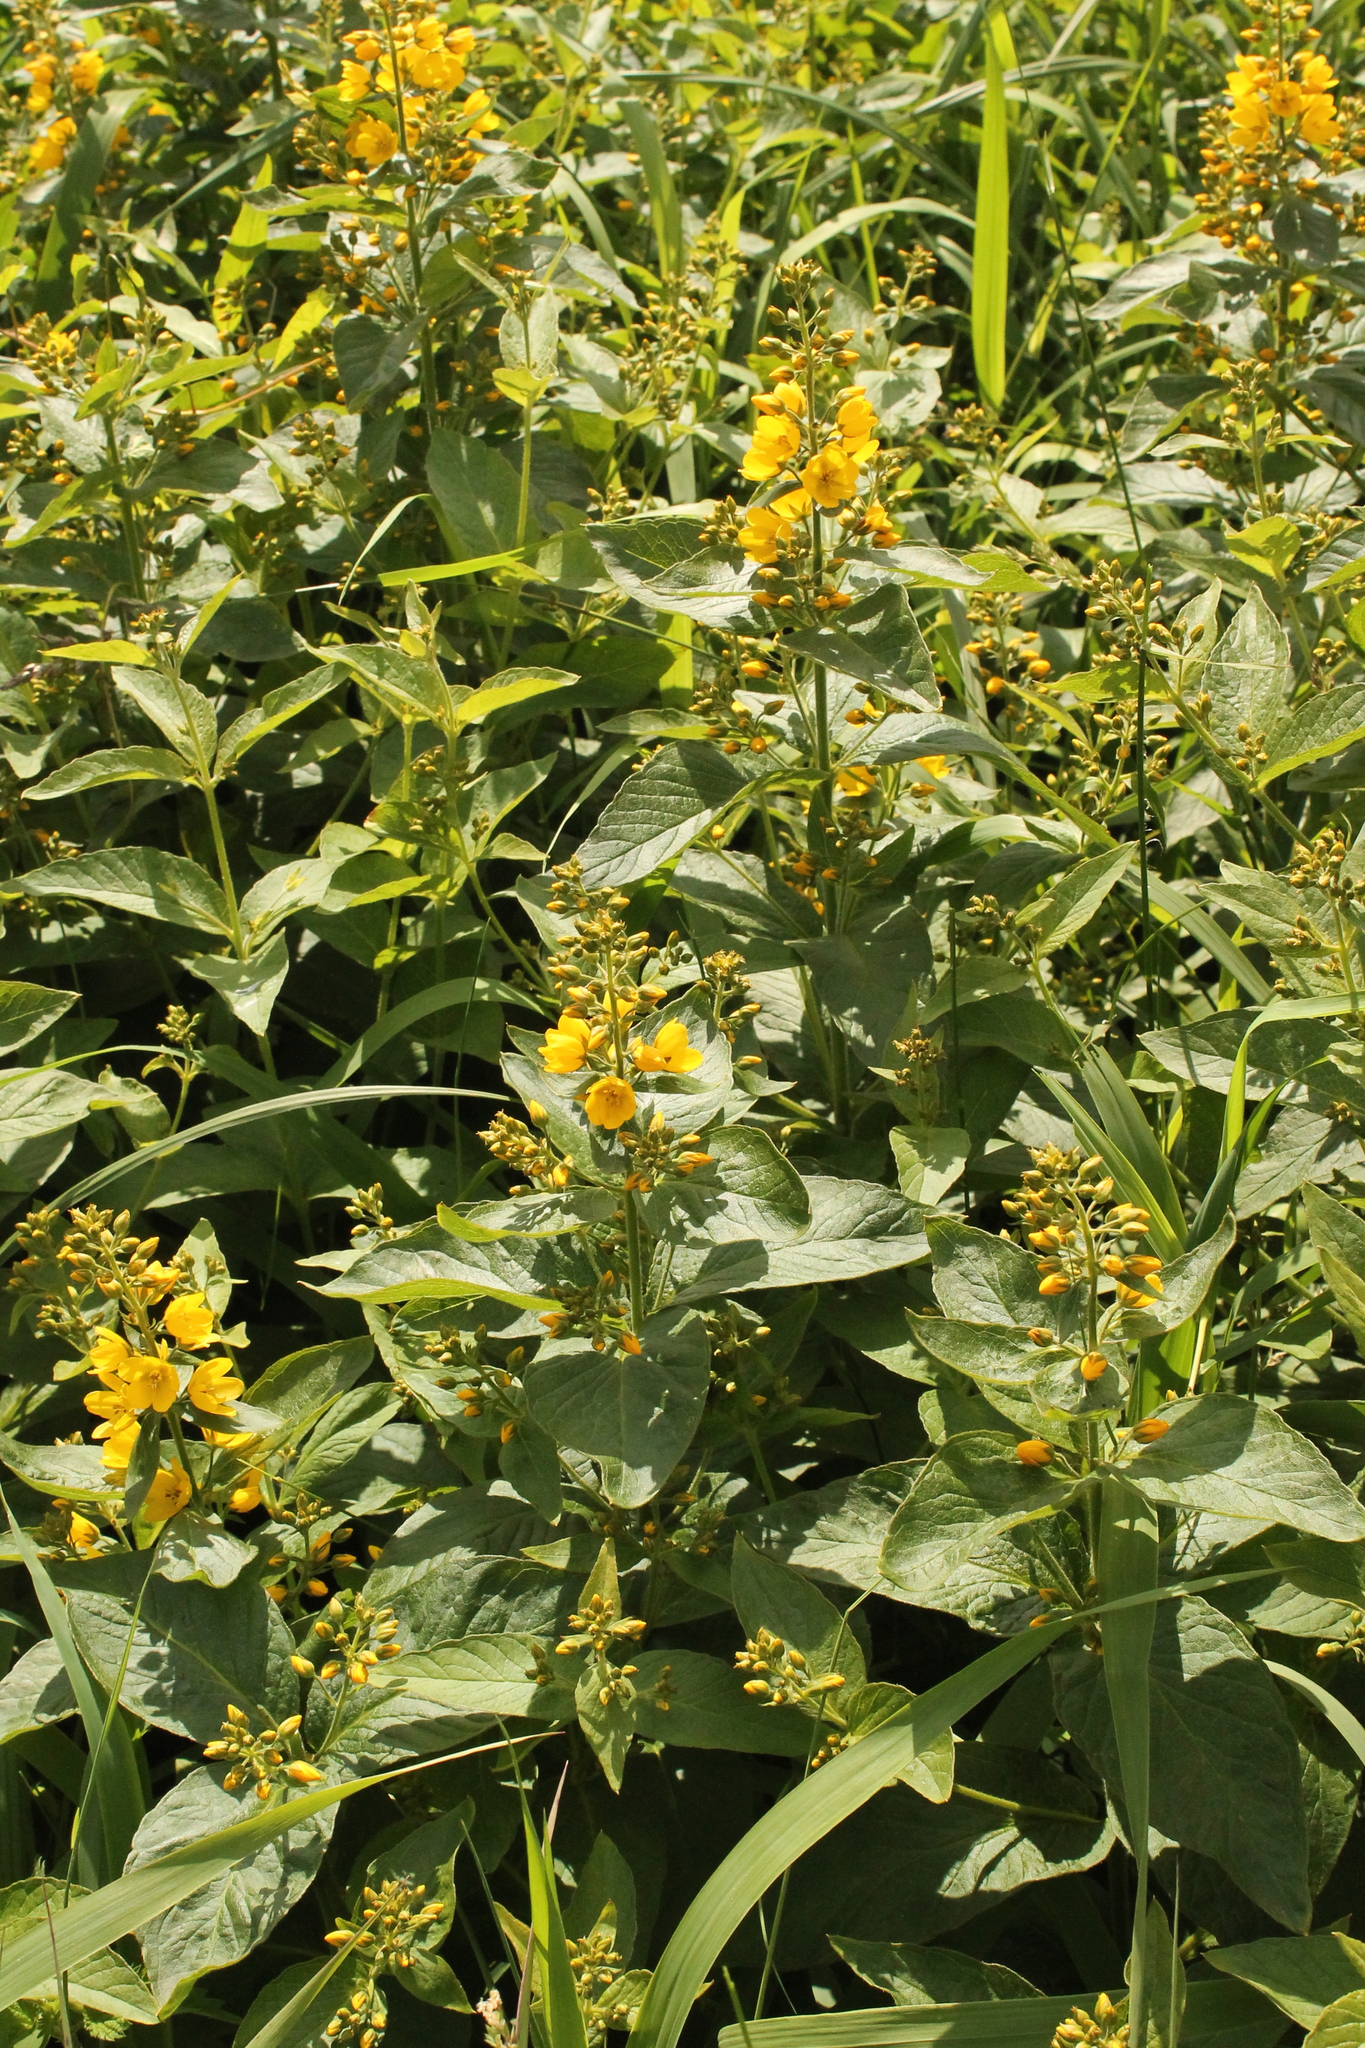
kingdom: Plantae
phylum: Tracheophyta
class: Magnoliopsida
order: Ericales
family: Primulaceae
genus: Lysimachia
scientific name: Lysimachia vulgaris
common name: Yellow loosestrife
